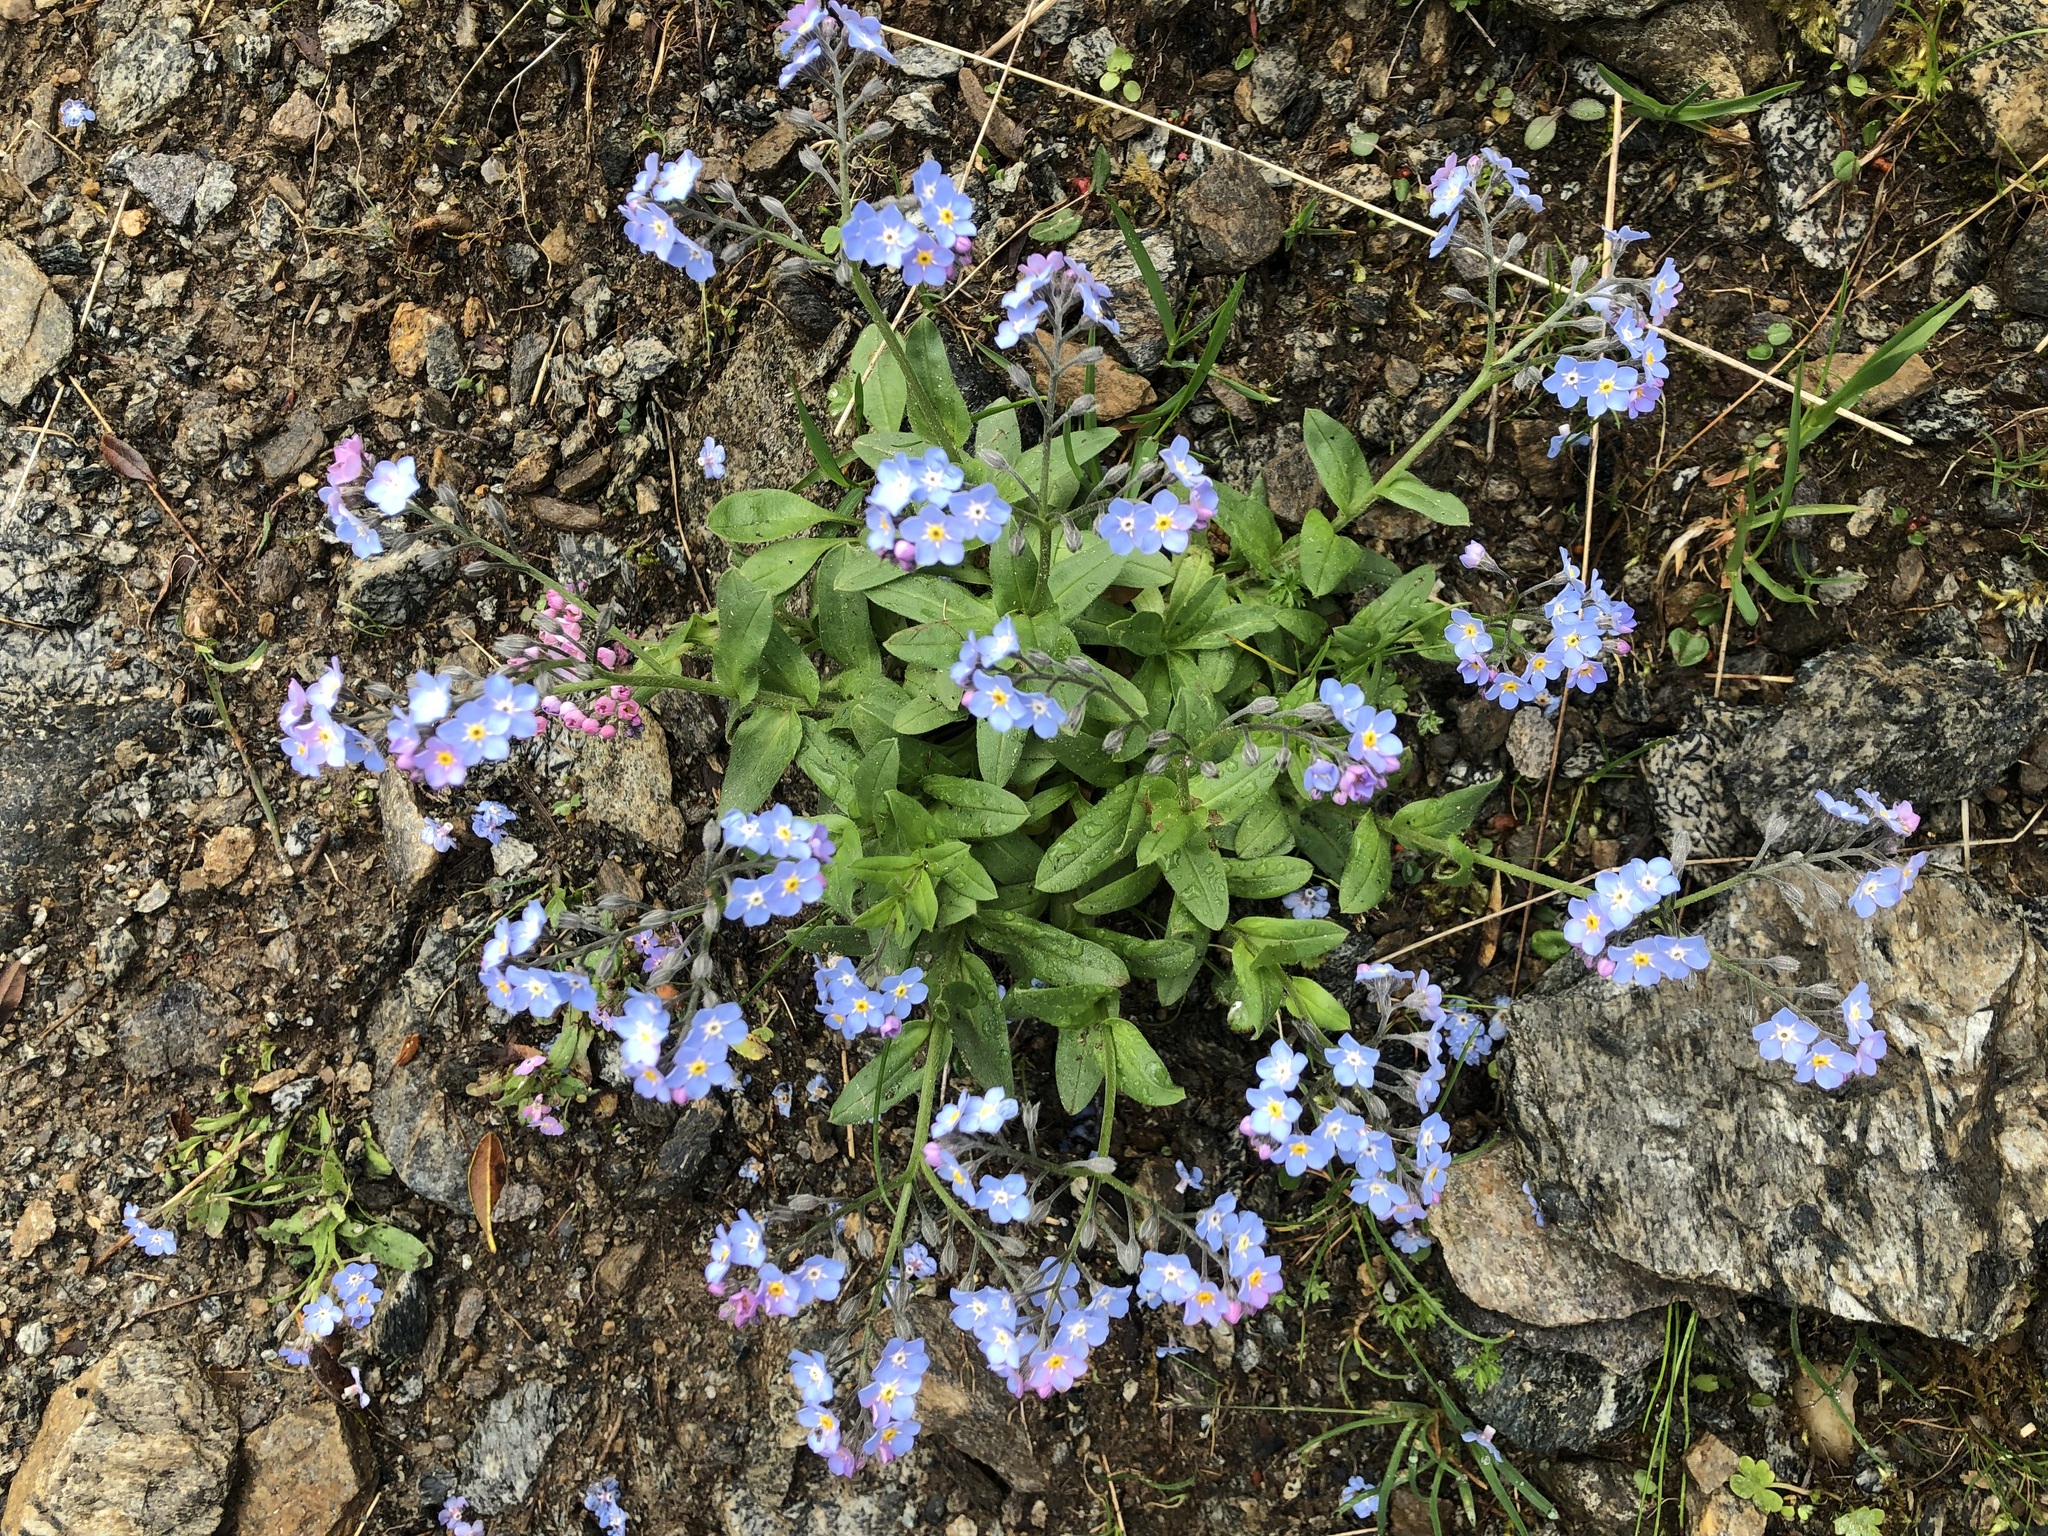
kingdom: Plantae
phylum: Tracheophyta
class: Magnoliopsida
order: Boraginales
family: Boraginaceae
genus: Myosotis
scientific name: Myosotis alpestris
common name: Alpine forget-me-not
